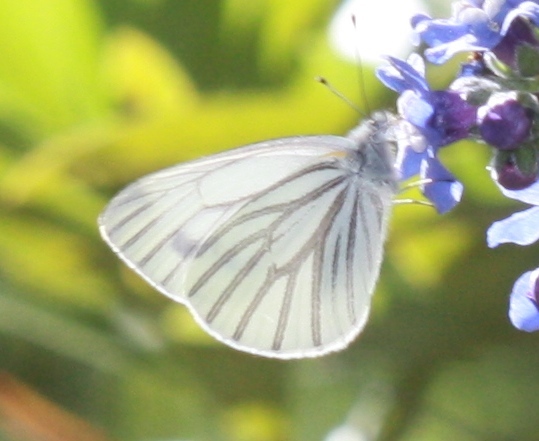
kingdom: Animalia
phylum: Arthropoda
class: Insecta
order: Lepidoptera
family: Pieridae
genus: Pieris
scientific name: Pieris marginalis
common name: Margined white
